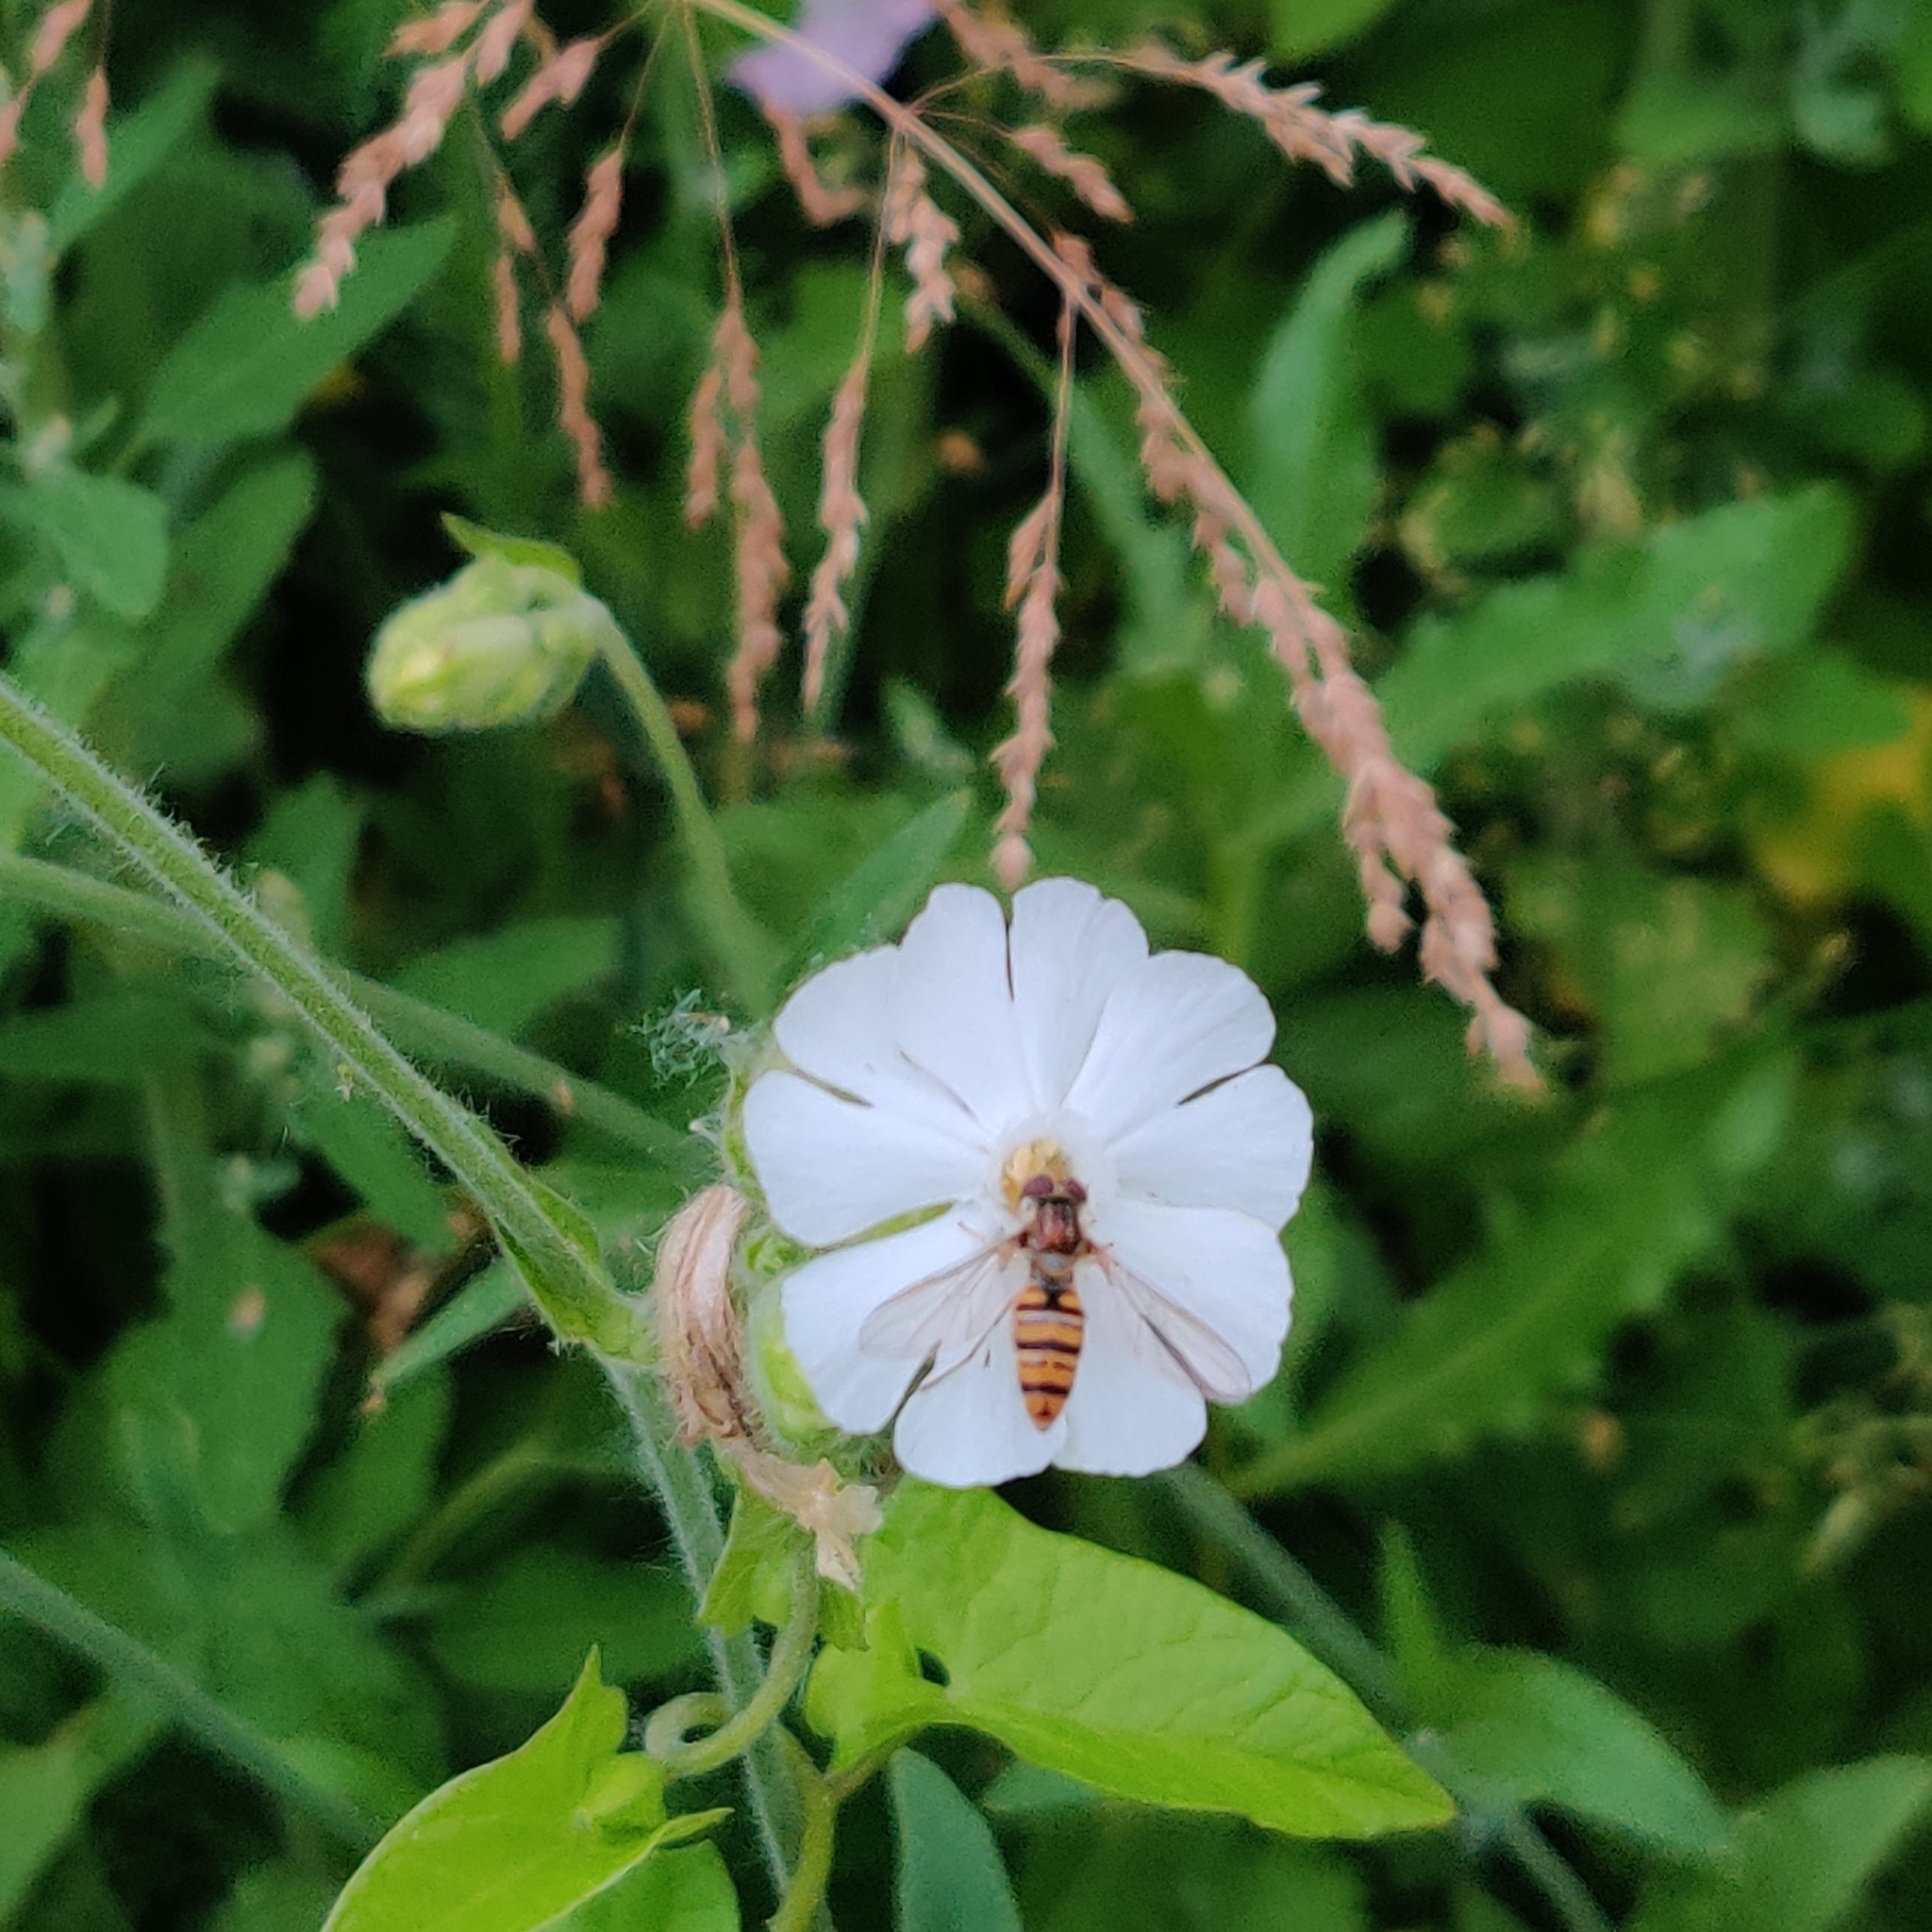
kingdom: Plantae
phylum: Tracheophyta
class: Magnoliopsida
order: Caryophyllales
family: Caryophyllaceae
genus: Silene
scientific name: Silene latifolia
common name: White campion
